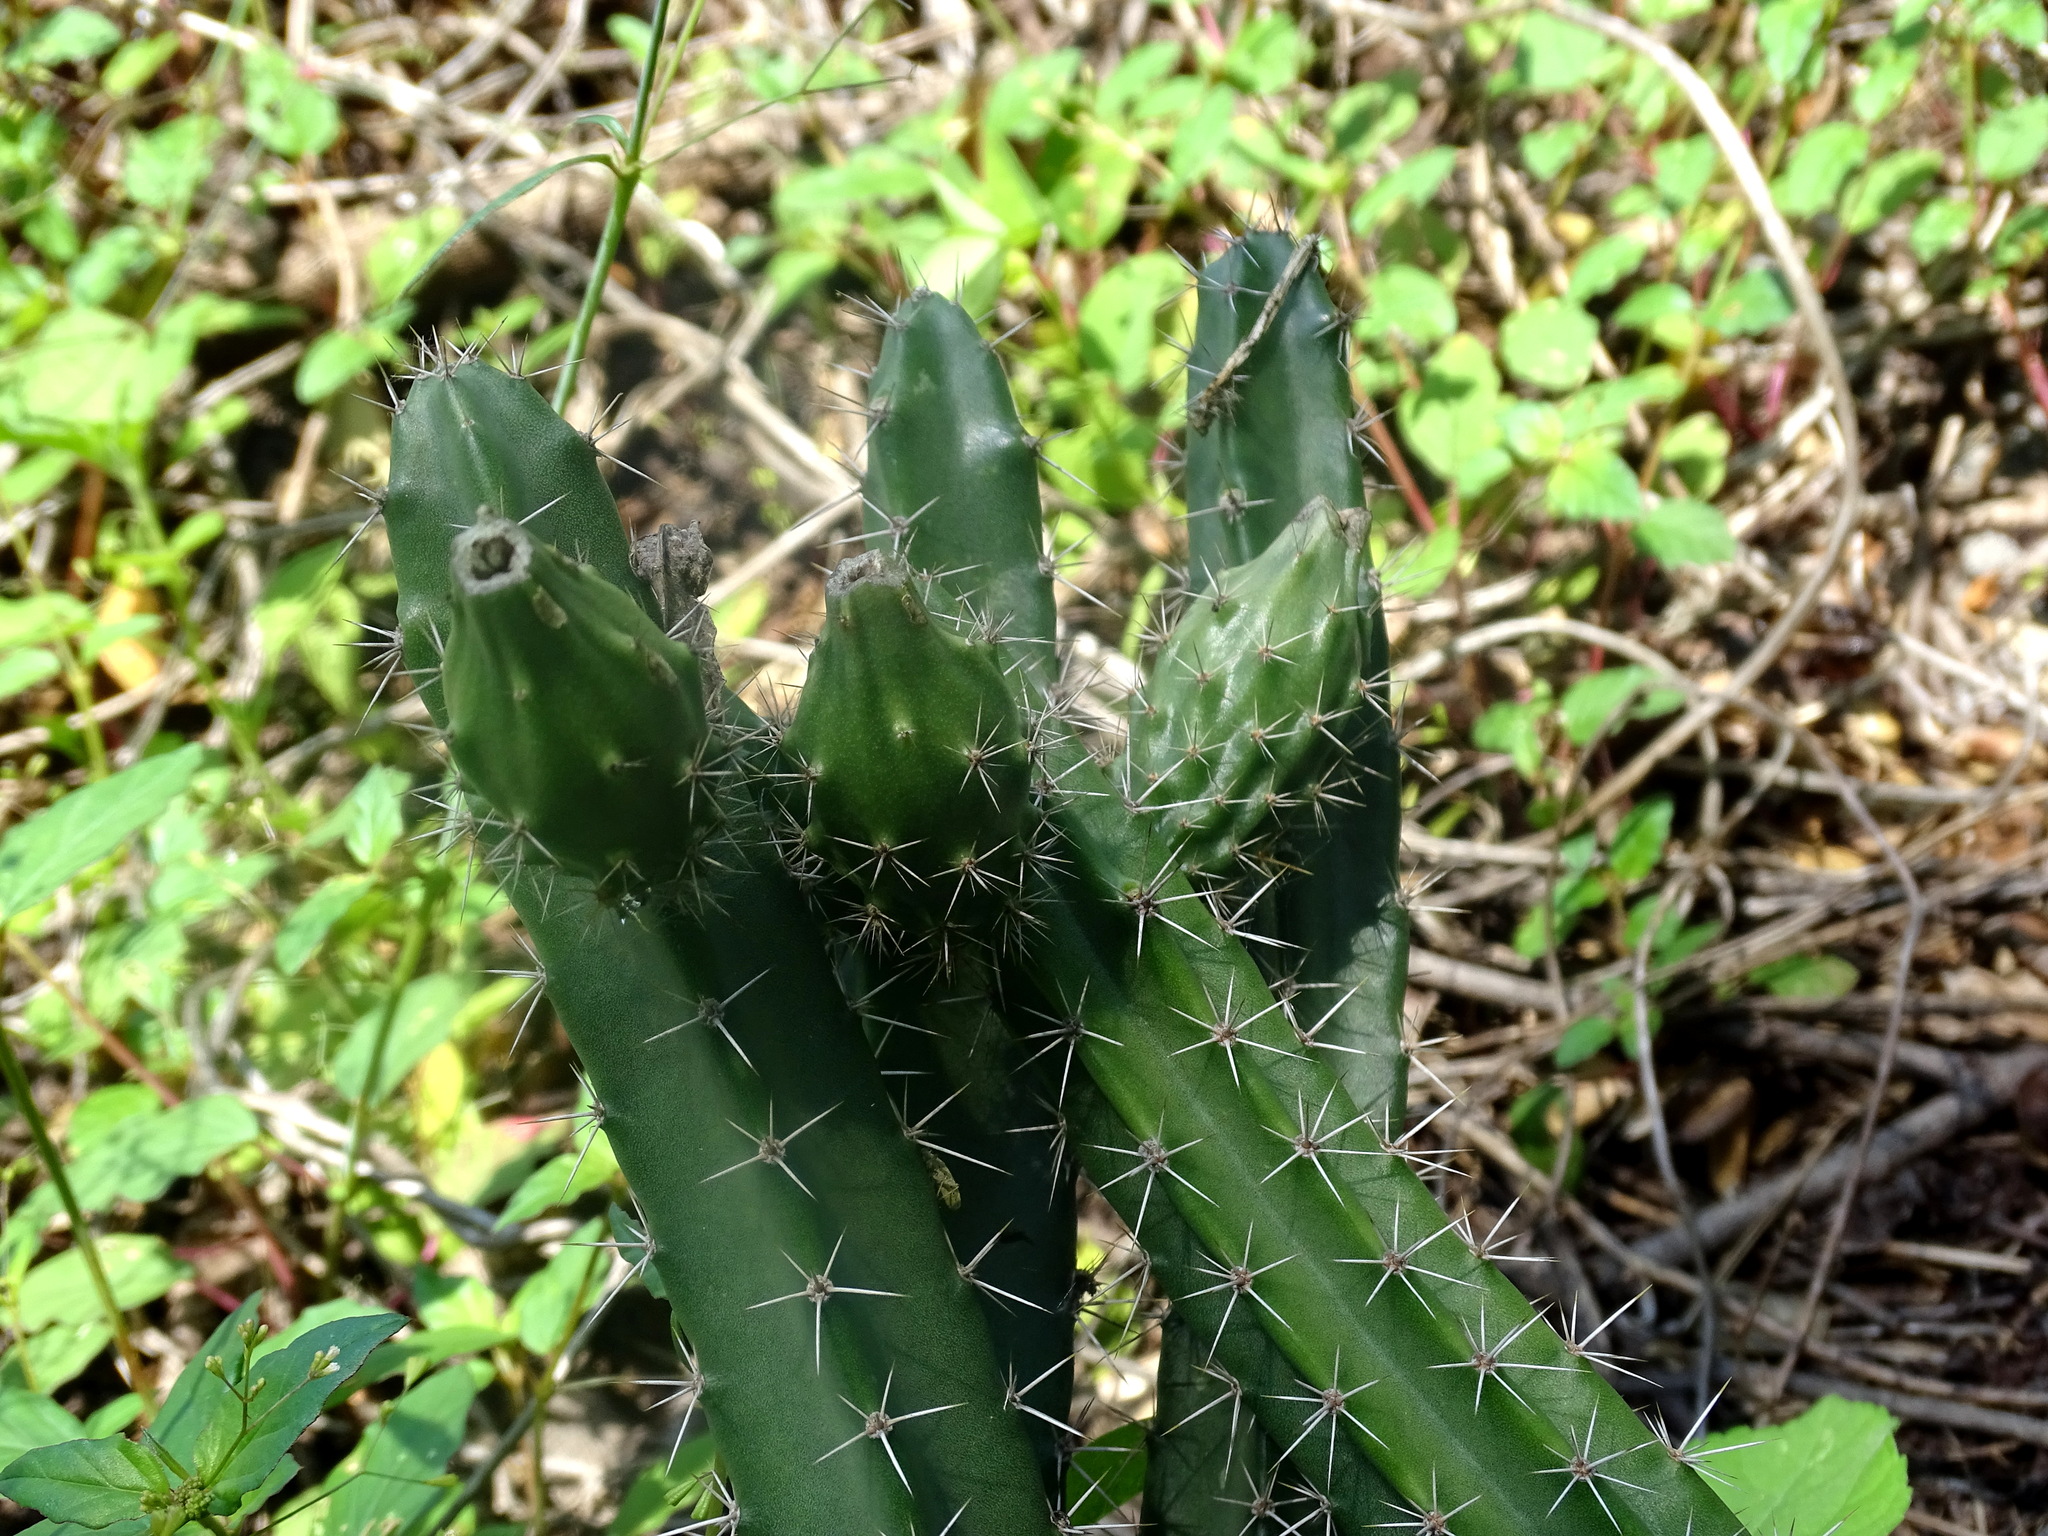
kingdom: Plantae
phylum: Tracheophyta
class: Magnoliopsida
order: Caryophyllales
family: Cactaceae
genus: Acanthocereus
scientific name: Acanthocereus hesperius
